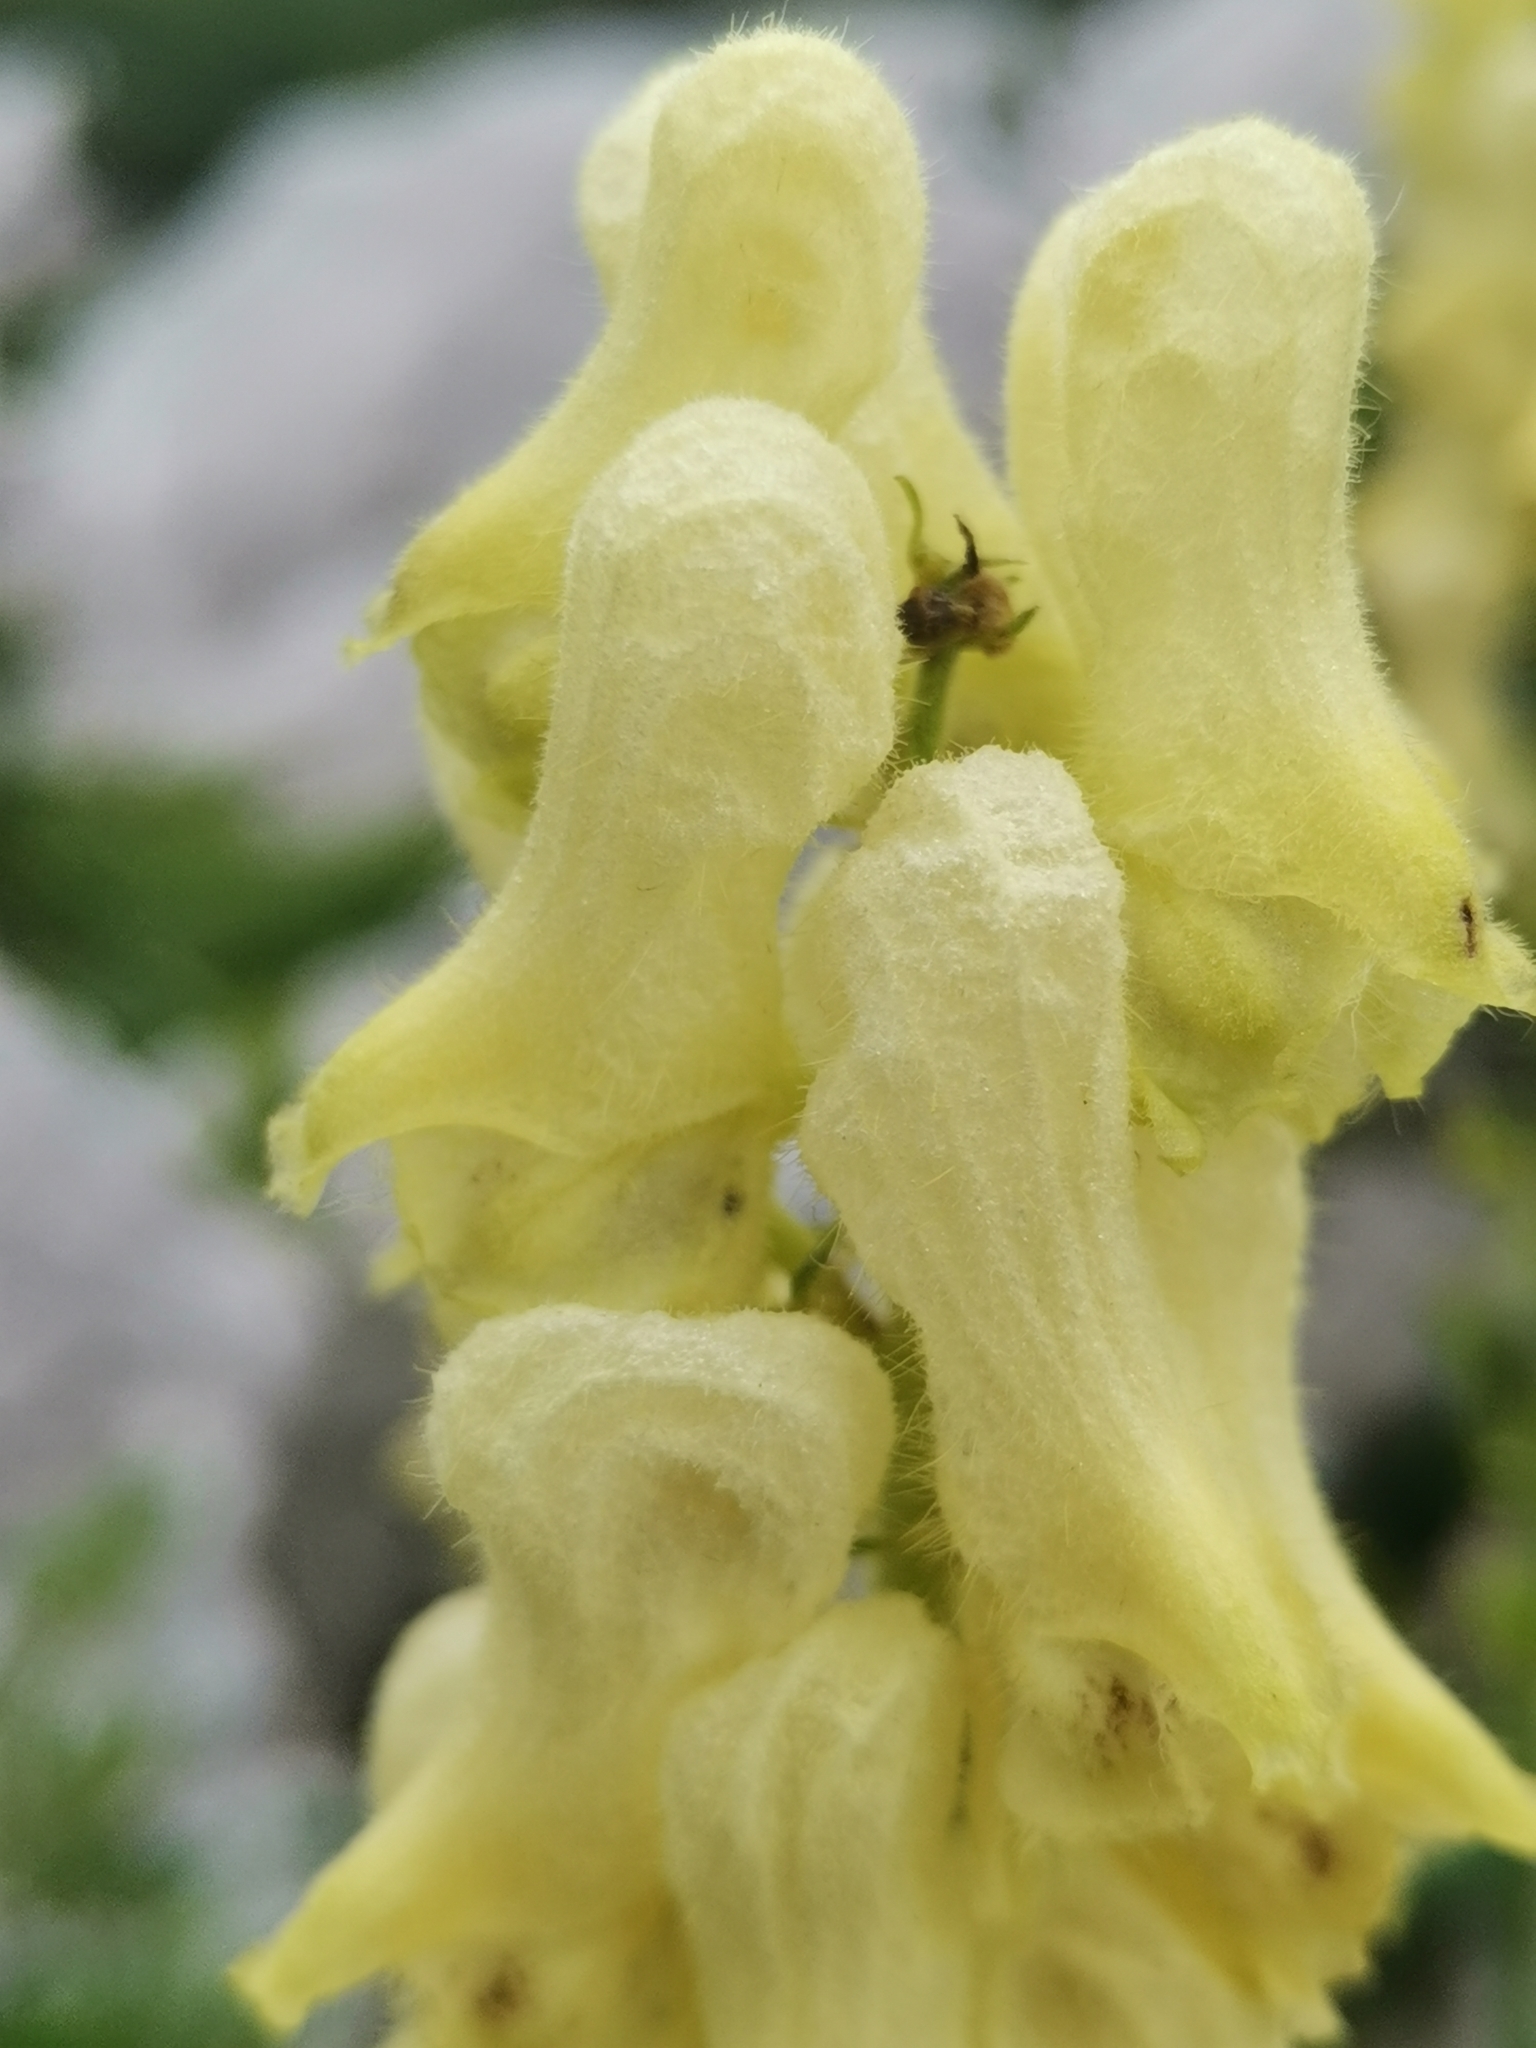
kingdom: Plantae
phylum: Tracheophyta
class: Magnoliopsida
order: Ranunculales
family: Ranunculaceae
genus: Aconitum
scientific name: Aconitum lycoctonum
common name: Wolf's-bane
